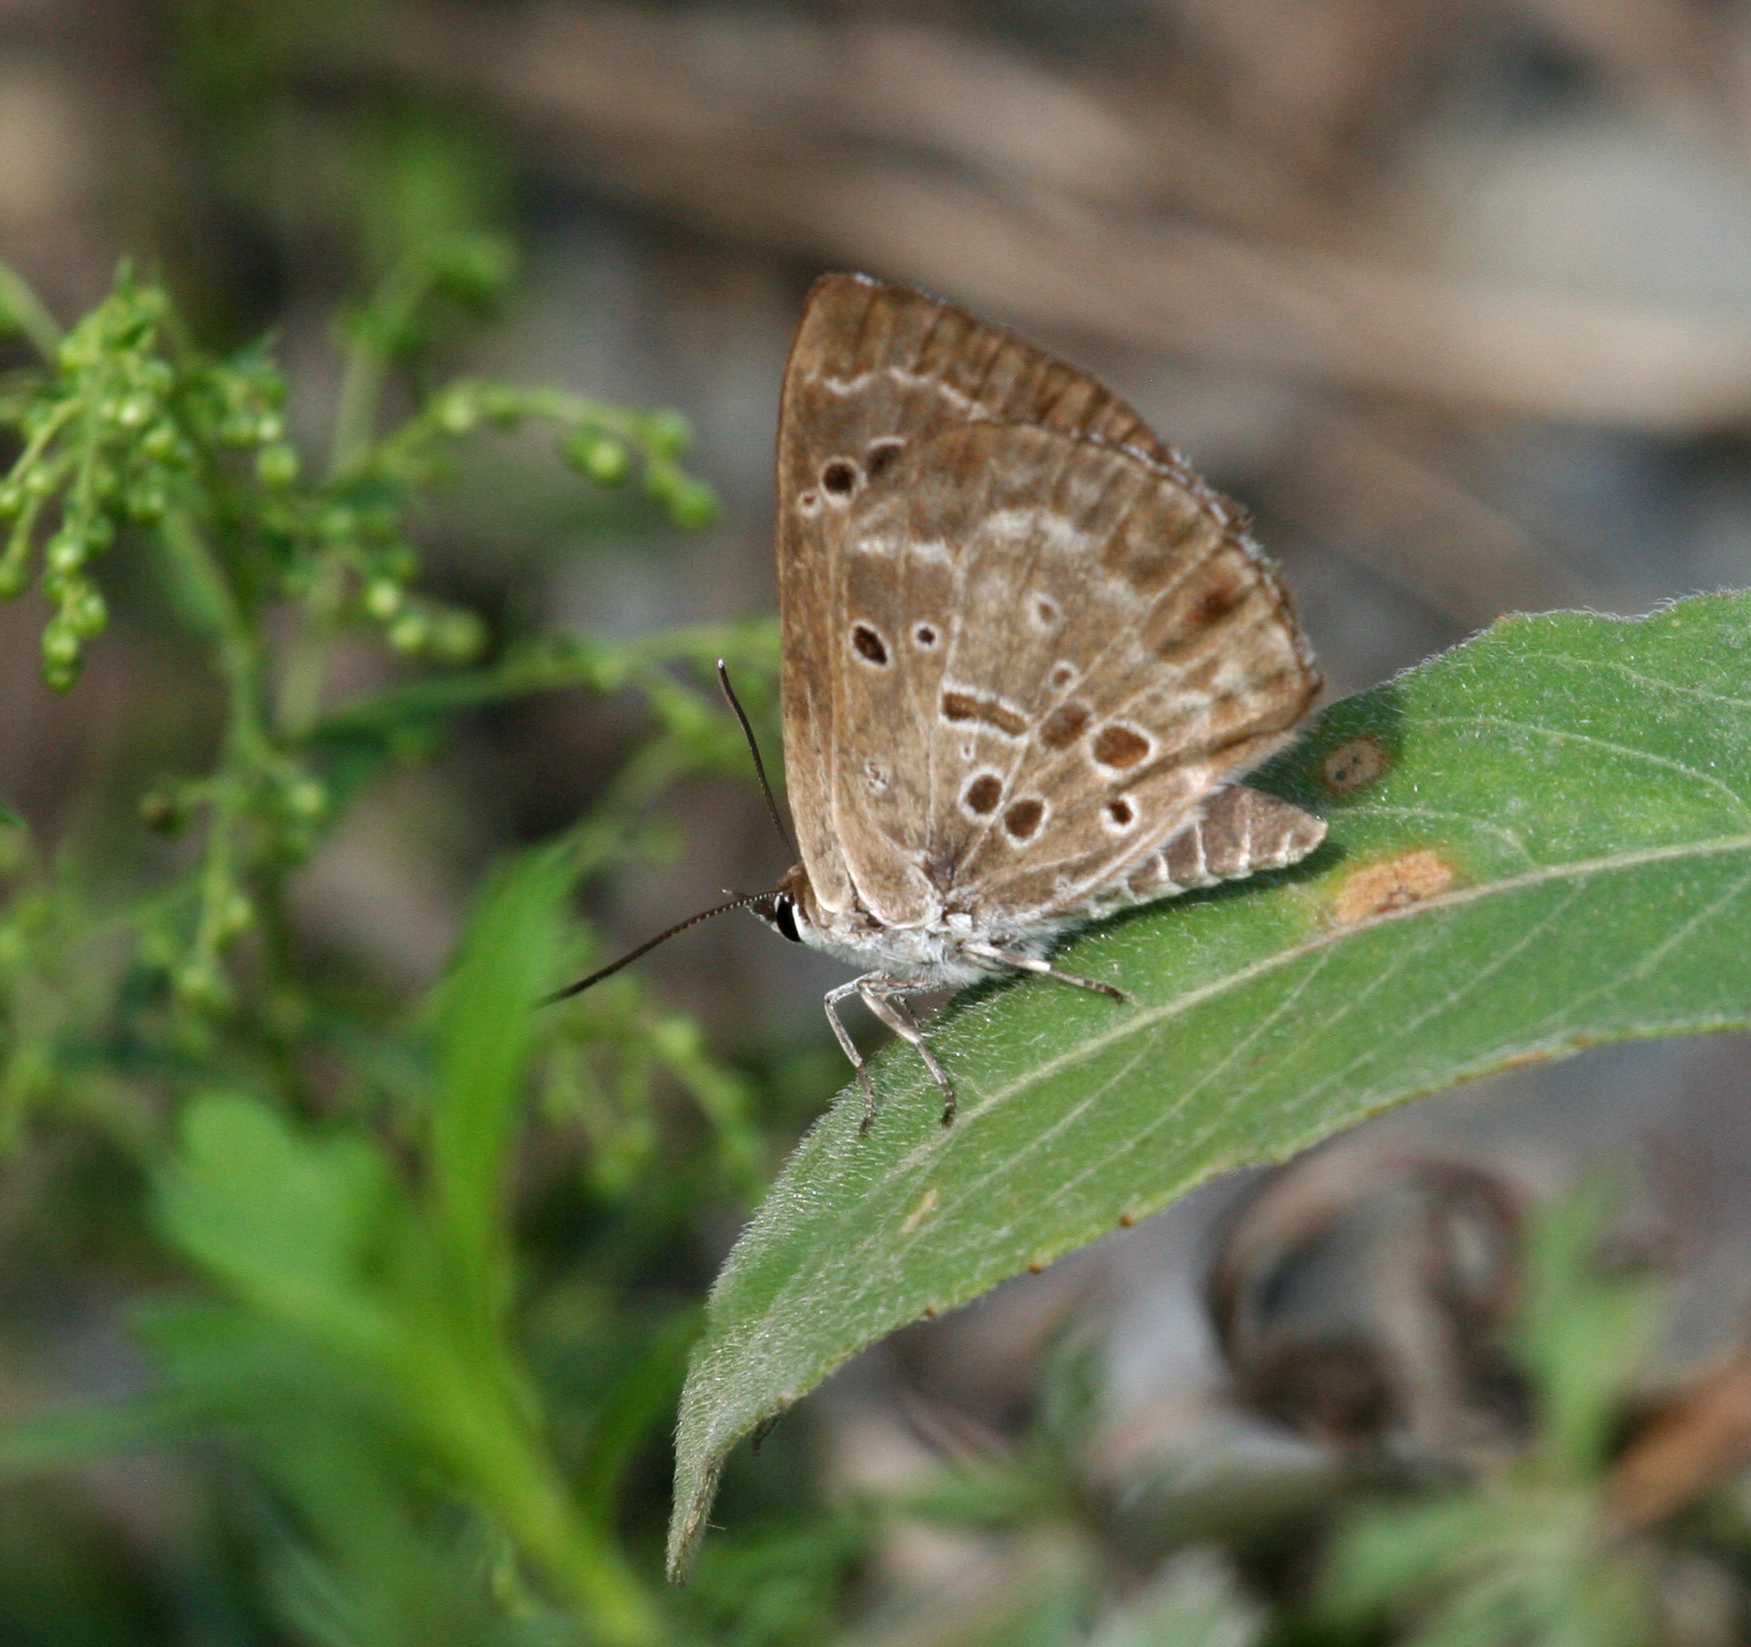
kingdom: Animalia
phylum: Arthropoda
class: Insecta
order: Lepidoptera
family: Lycaenidae
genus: Niphanda
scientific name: Niphanda fusca
